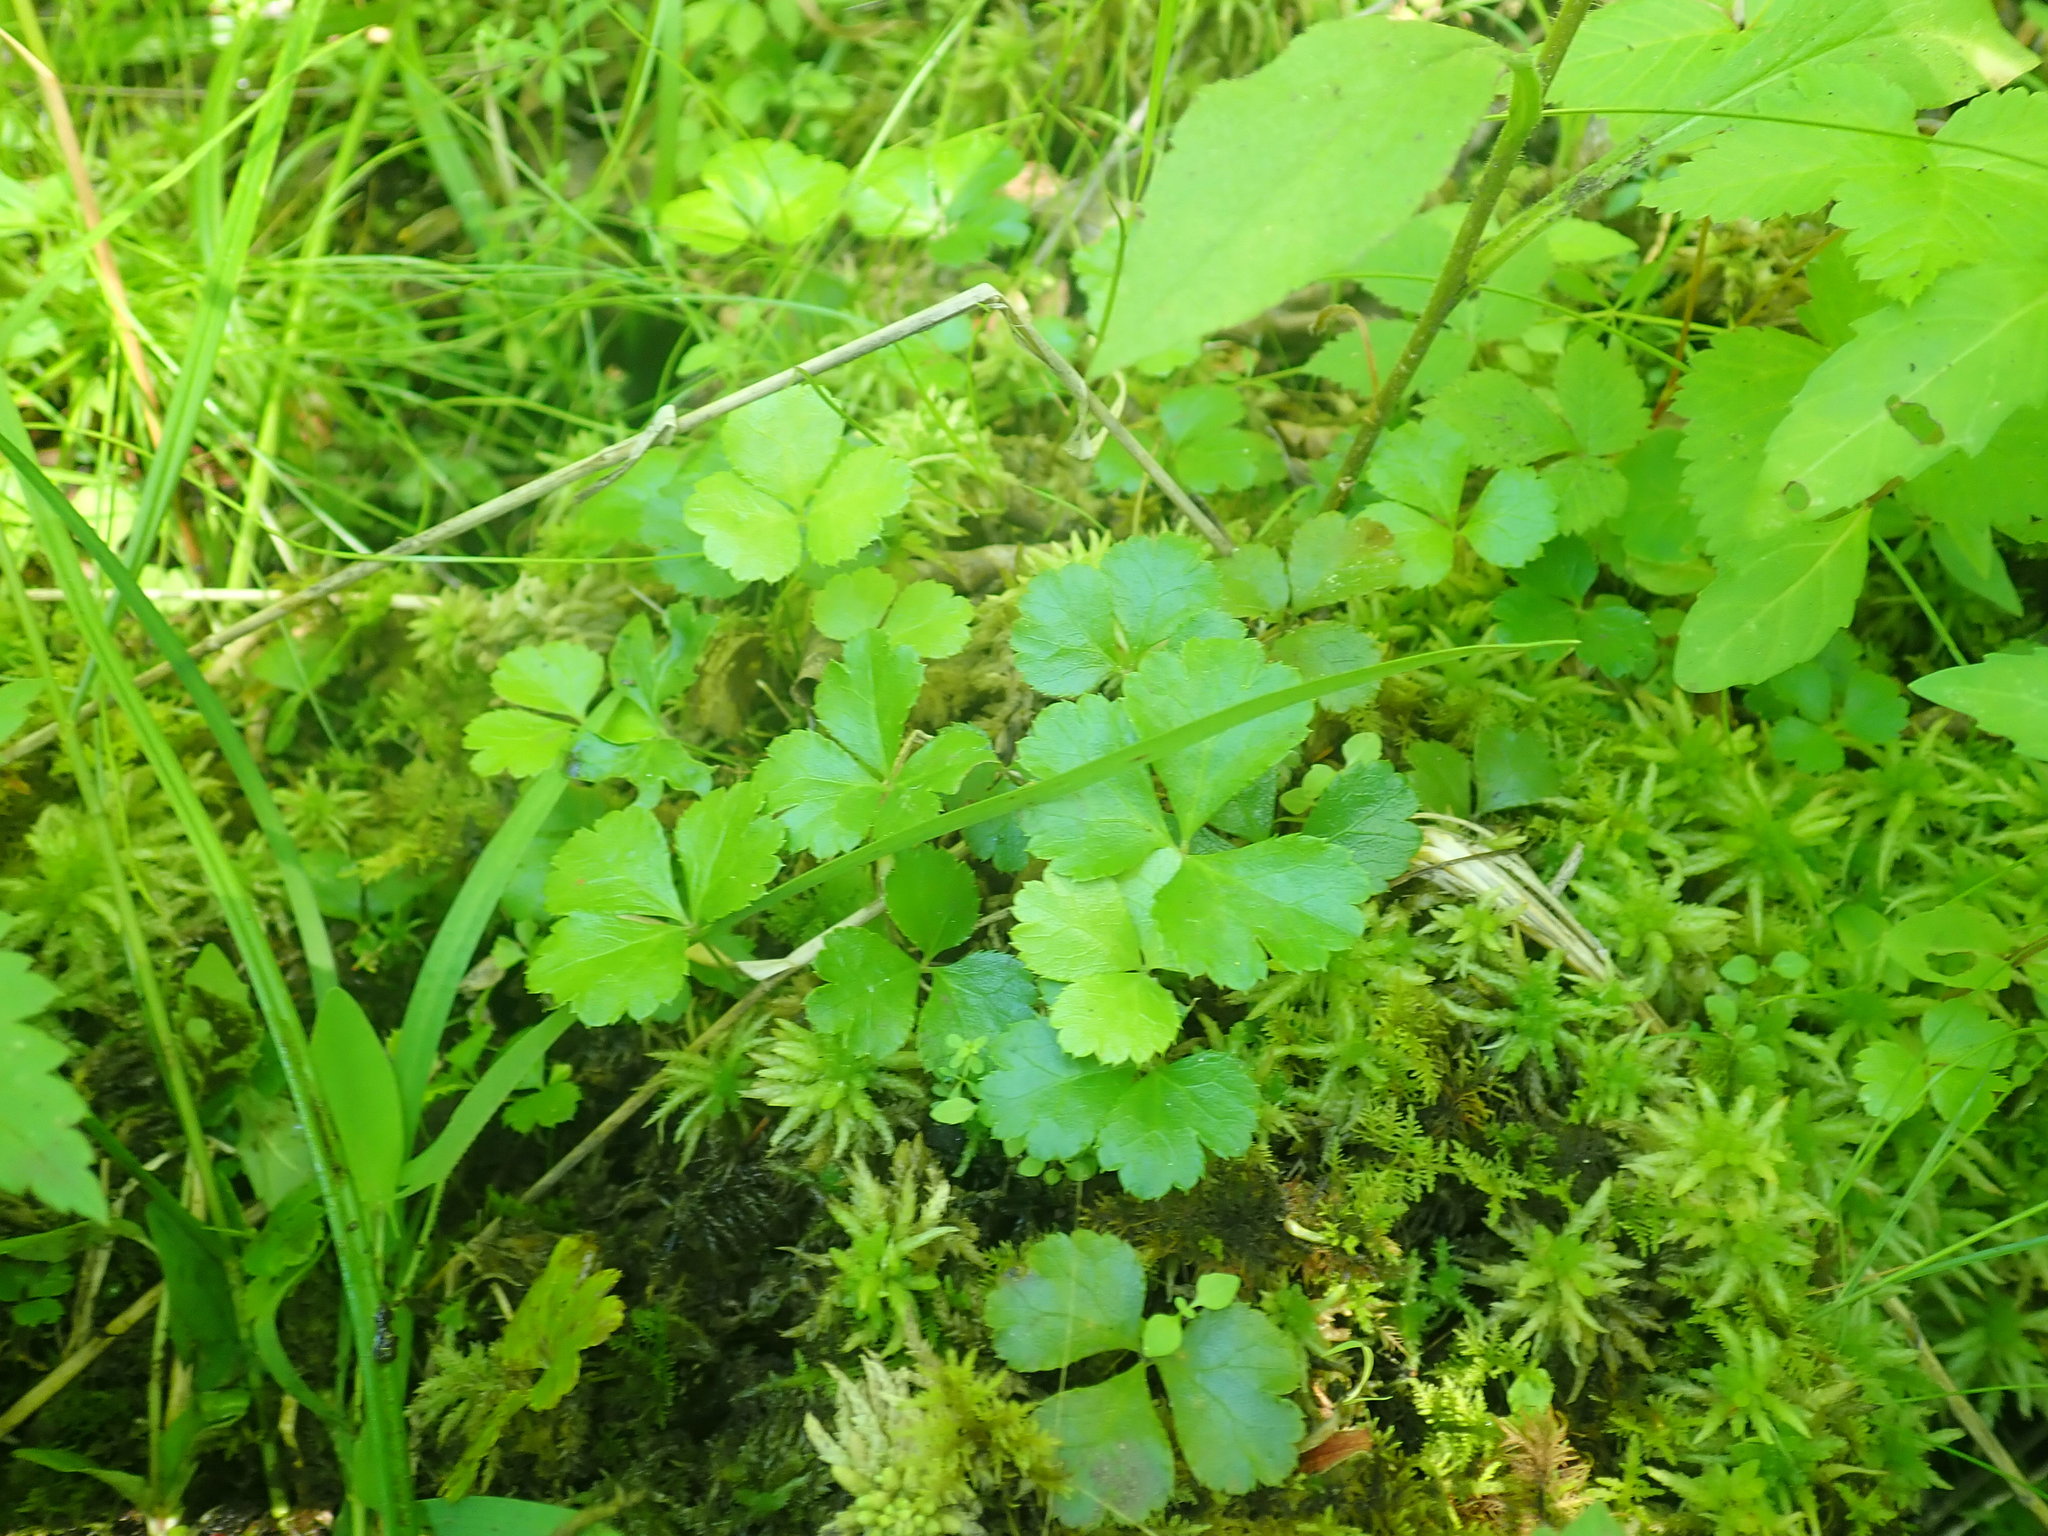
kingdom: Plantae
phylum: Tracheophyta
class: Magnoliopsida
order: Ranunculales
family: Ranunculaceae
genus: Coptis
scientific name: Coptis trifolia
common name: Canker-root
